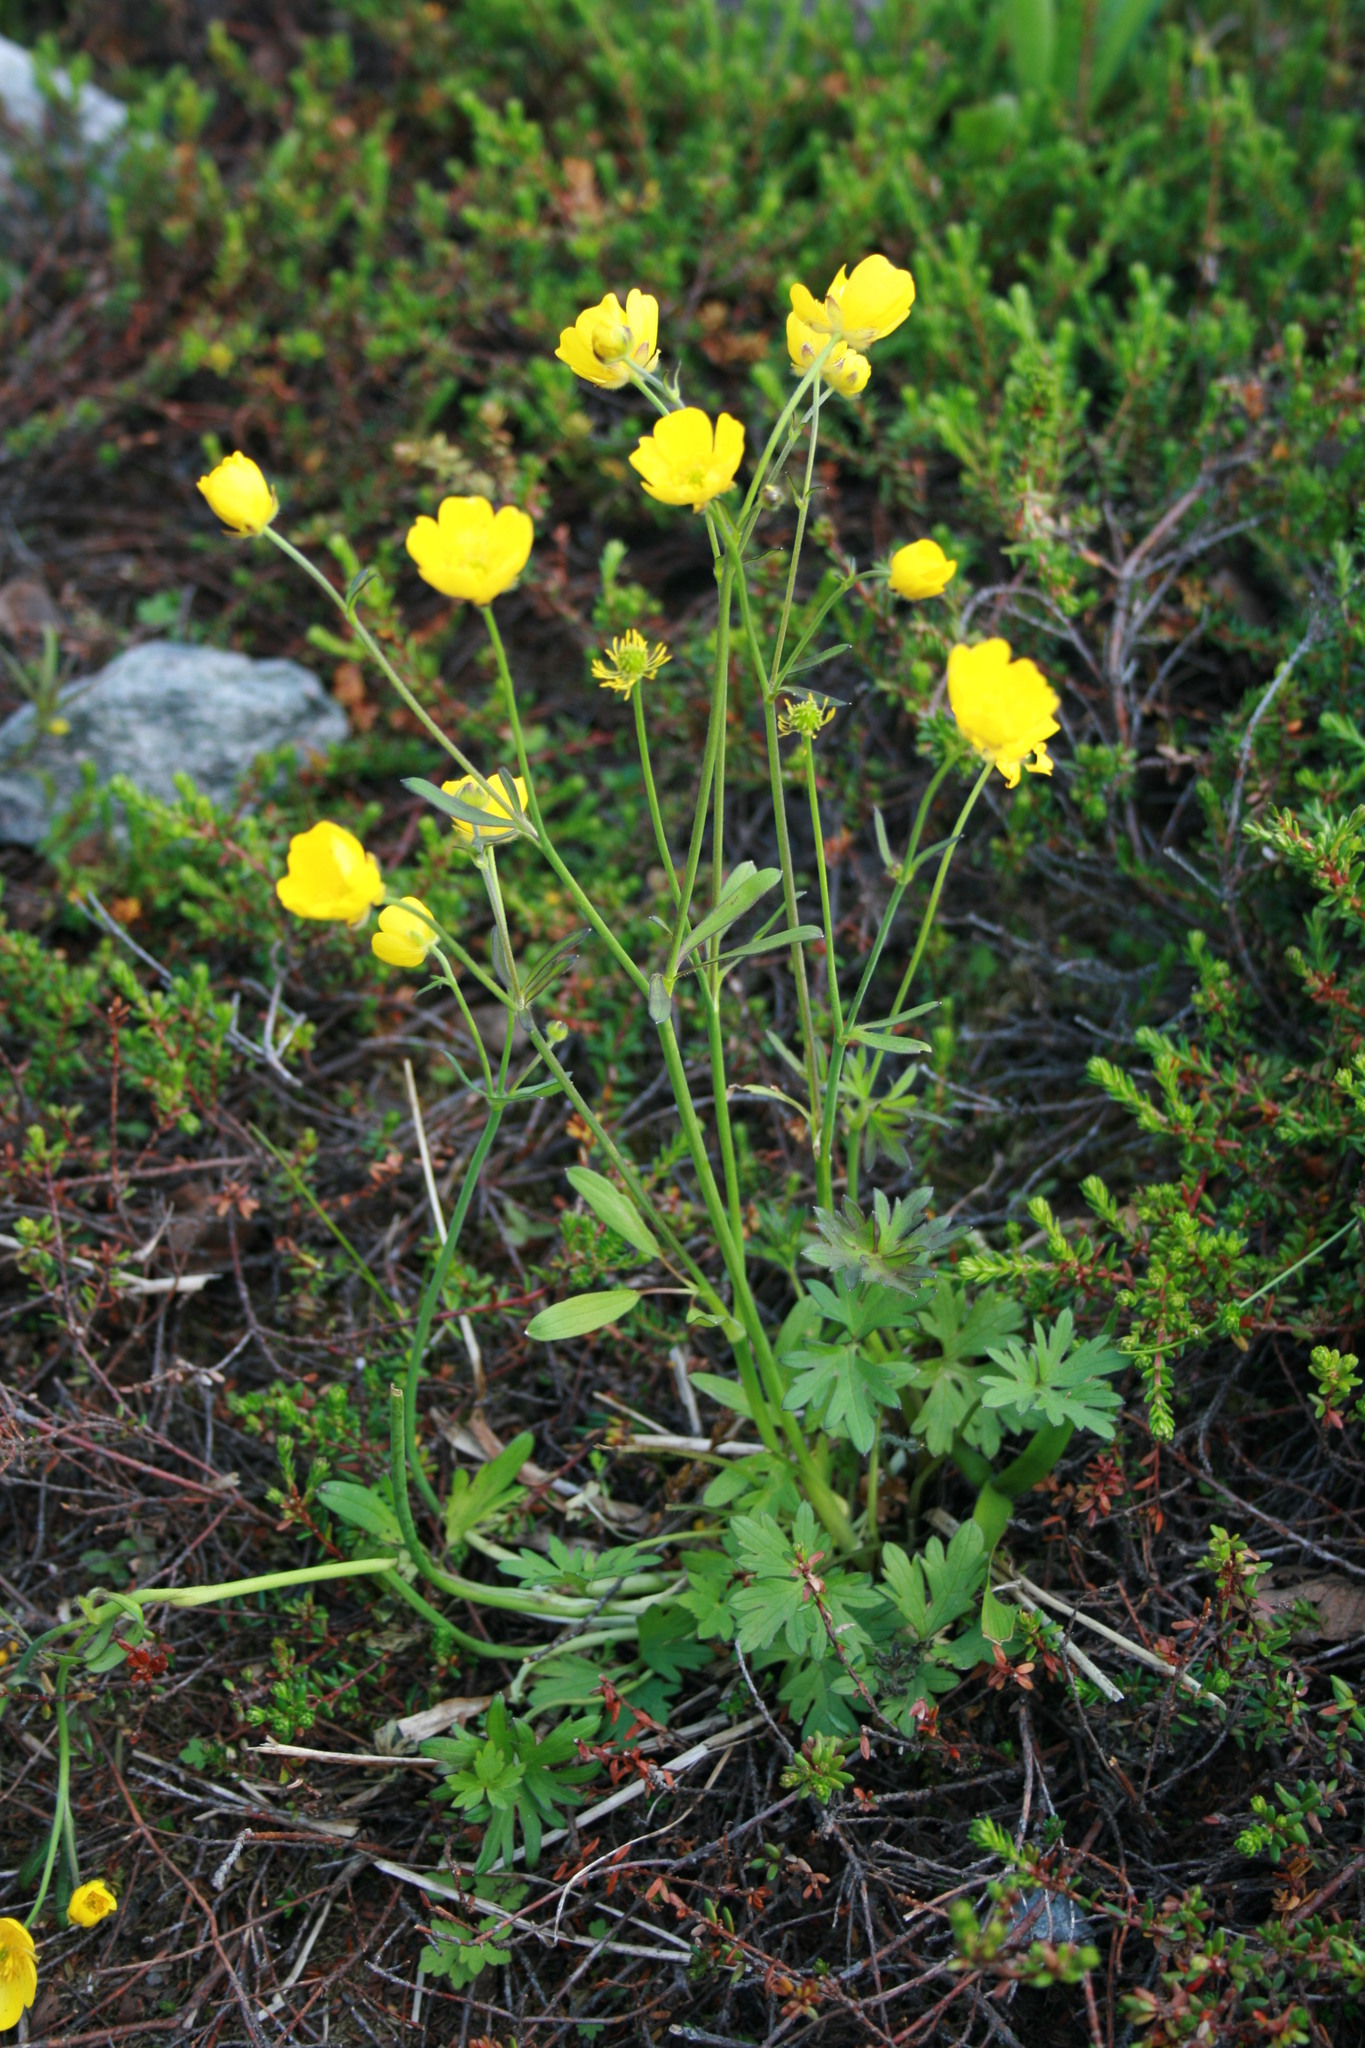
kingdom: Plantae
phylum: Tracheophyta
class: Magnoliopsida
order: Ranunculales
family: Ranunculaceae
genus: Ranunculus
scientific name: Ranunculus acris
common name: Meadow buttercup
